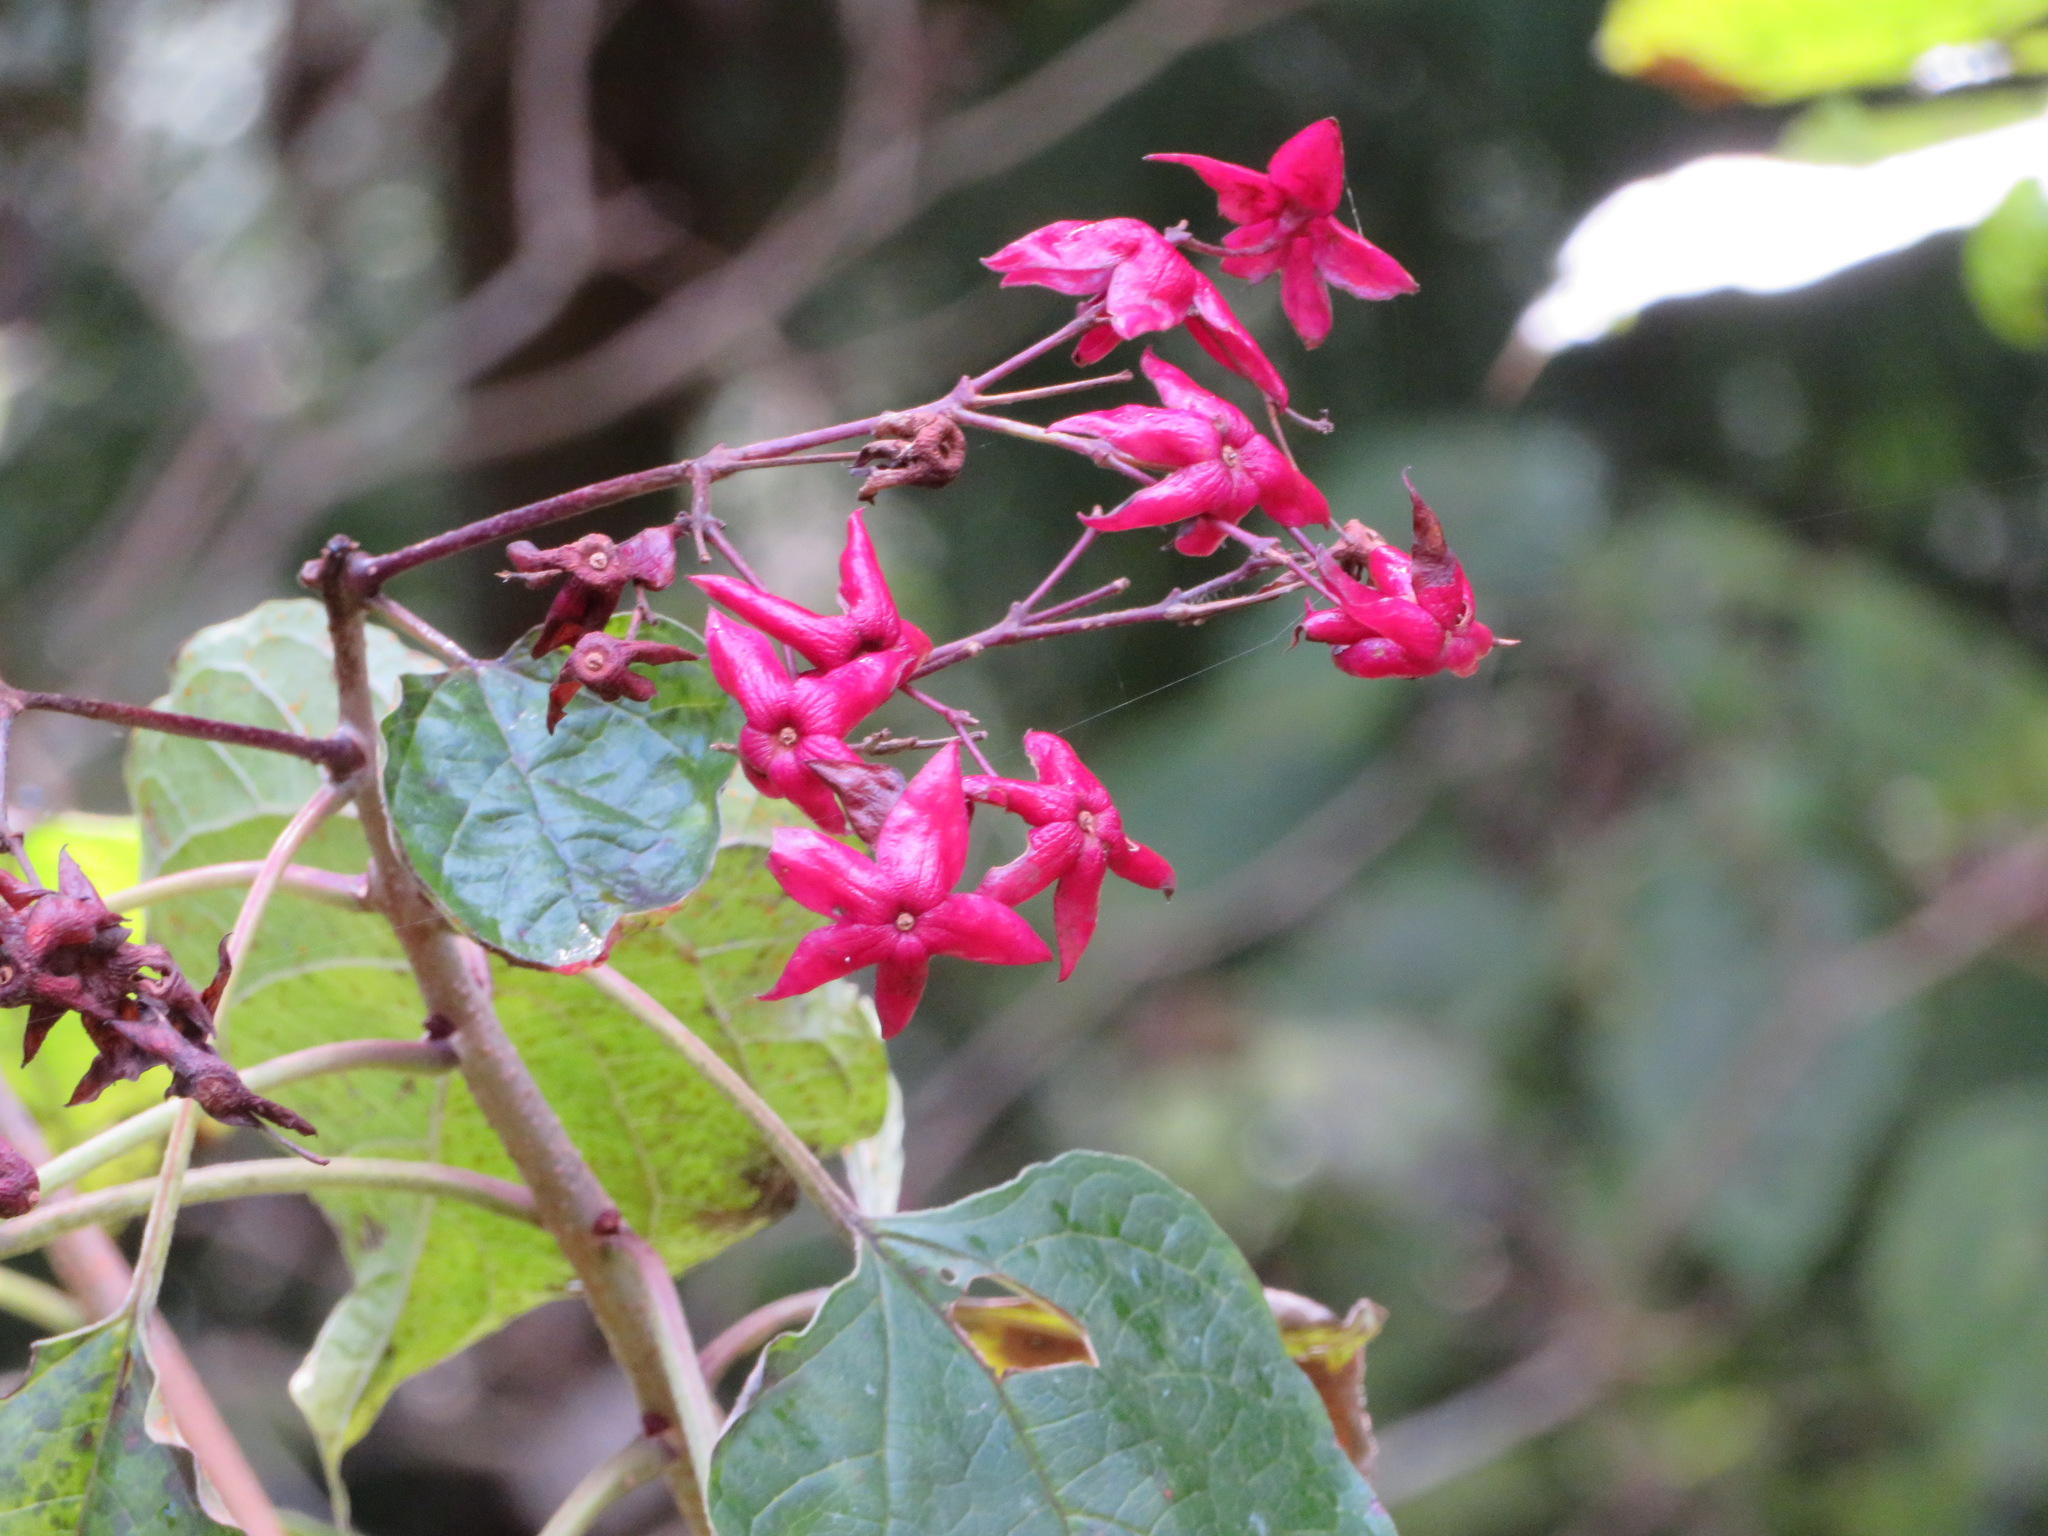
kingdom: Plantae
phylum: Tracheophyta
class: Magnoliopsida
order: Lamiales
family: Lamiaceae
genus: Clerodendrum
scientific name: Clerodendrum trichotomum
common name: Harlequin glorybower
